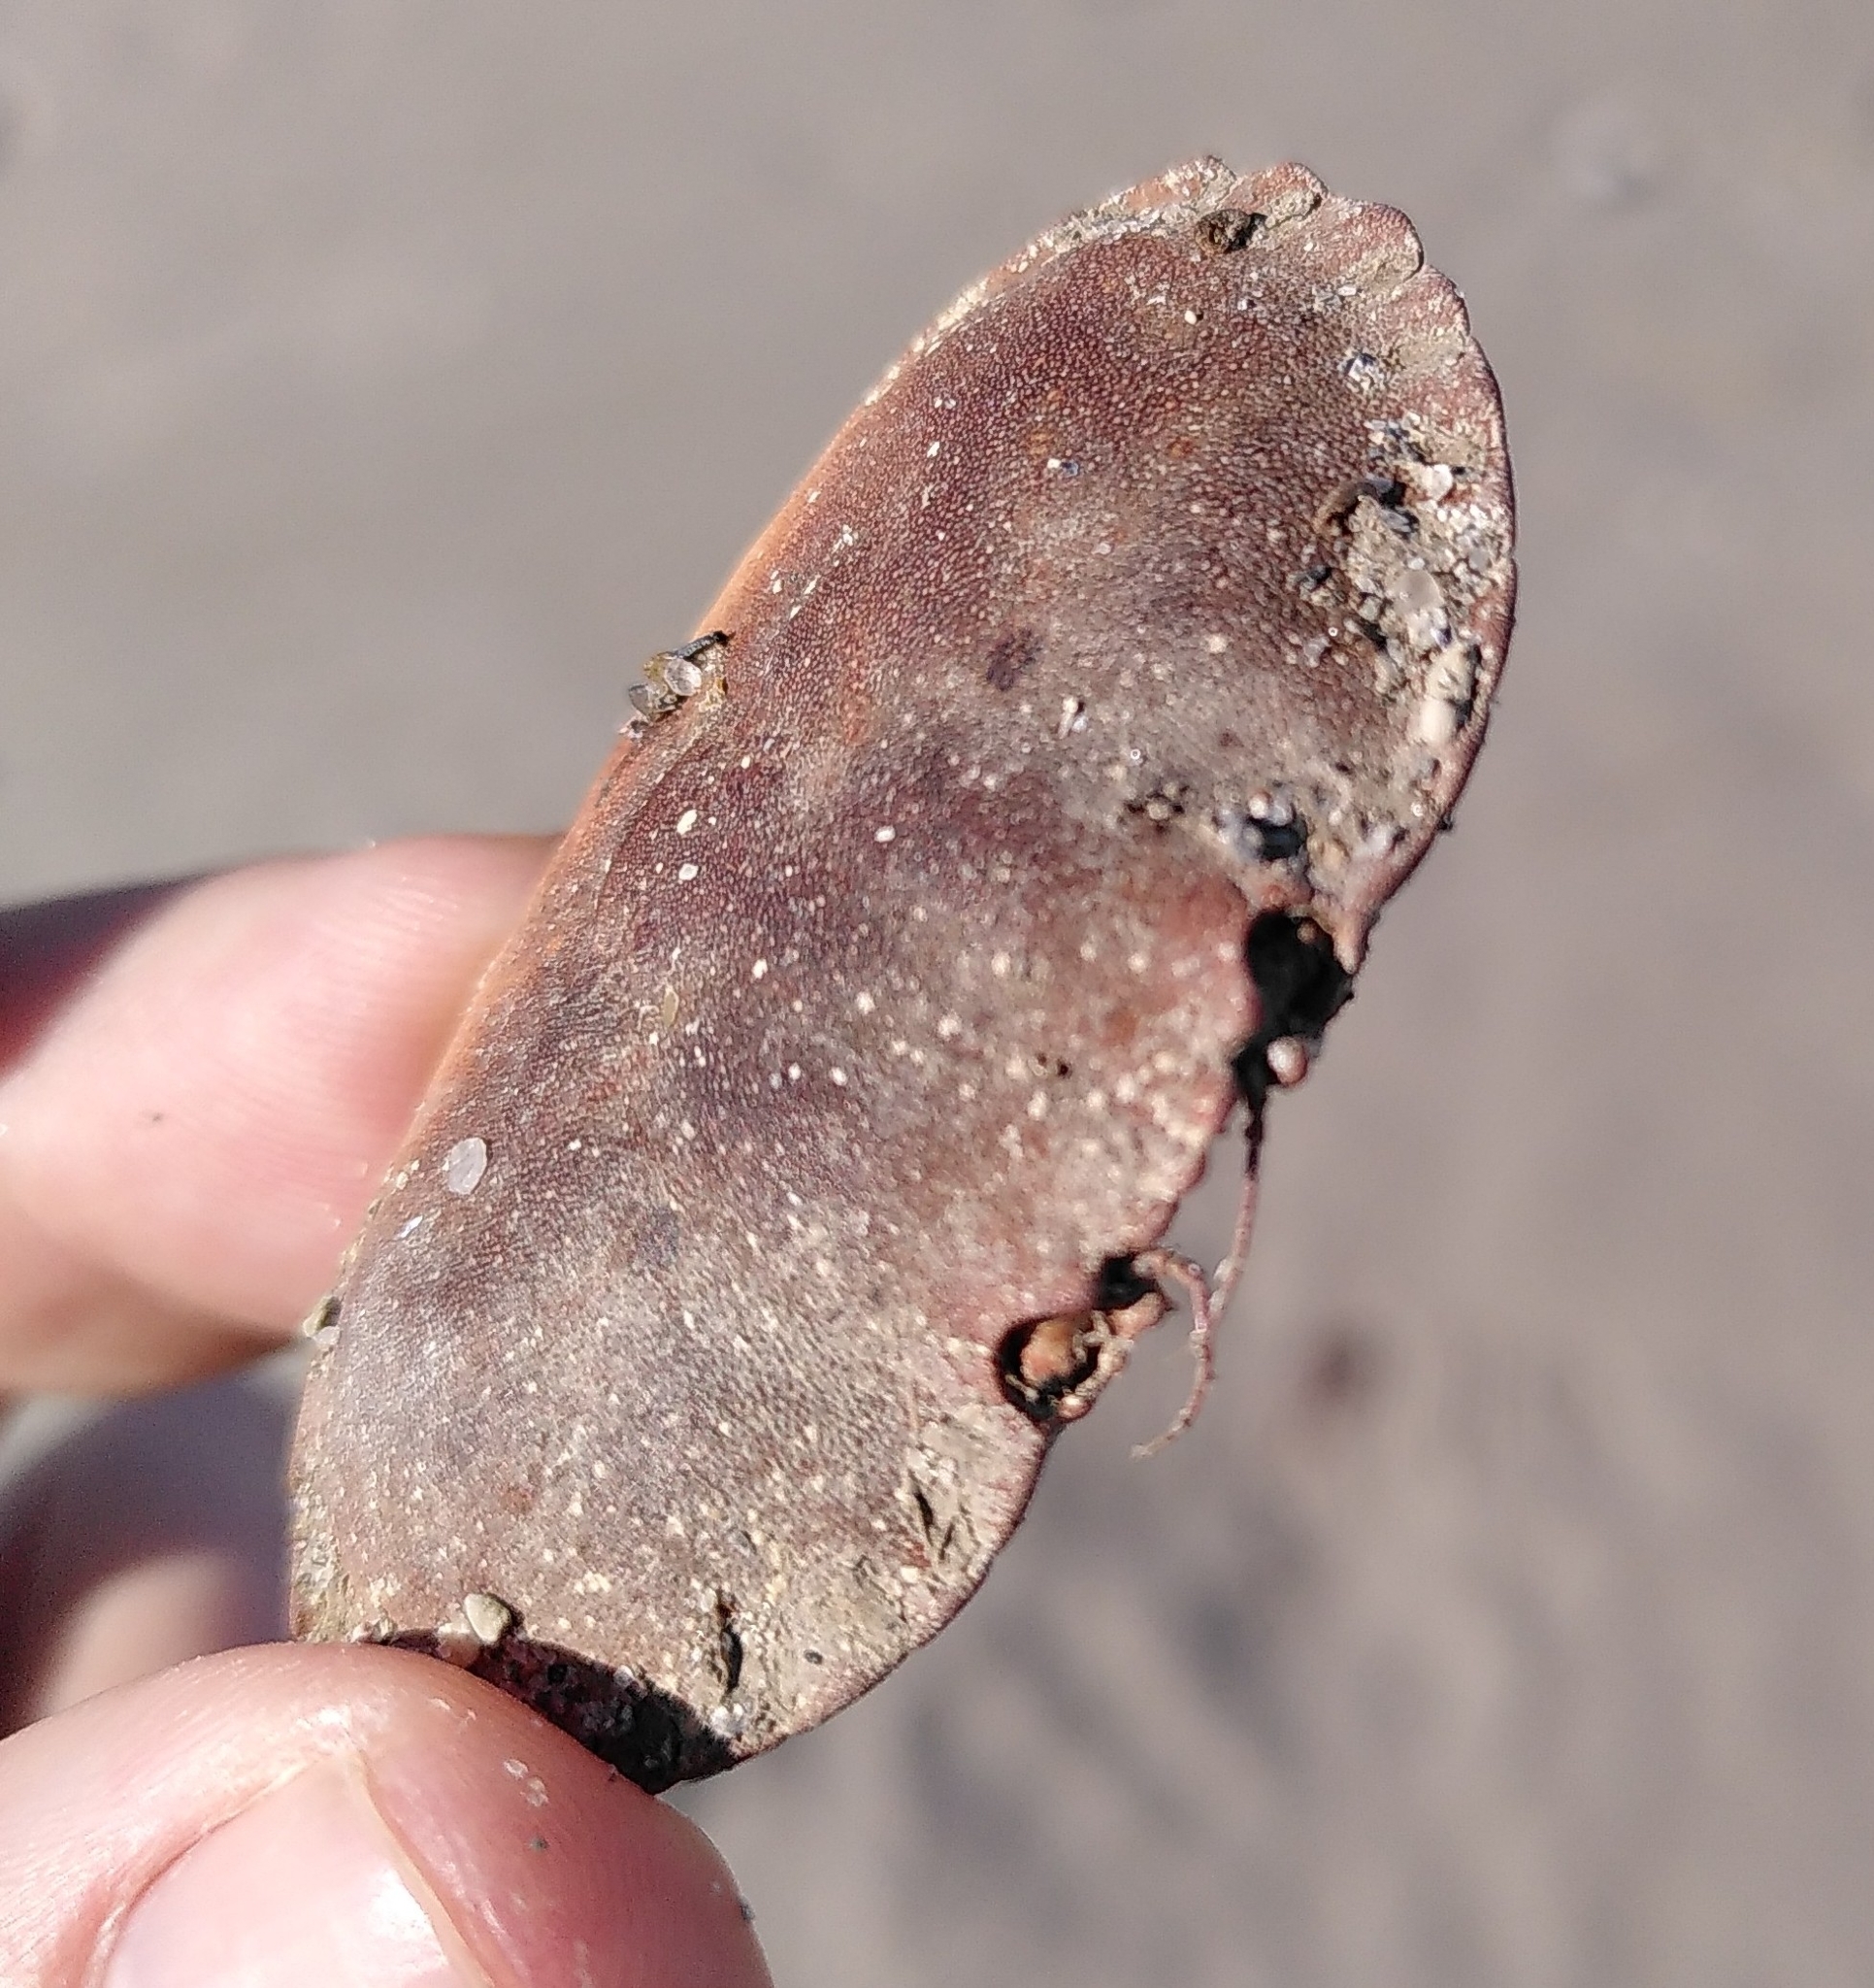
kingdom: Animalia
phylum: Arthropoda
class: Malacostraca
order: Decapoda
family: Cancridae
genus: Cancer
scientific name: Cancer pagurus
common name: Edible crab
